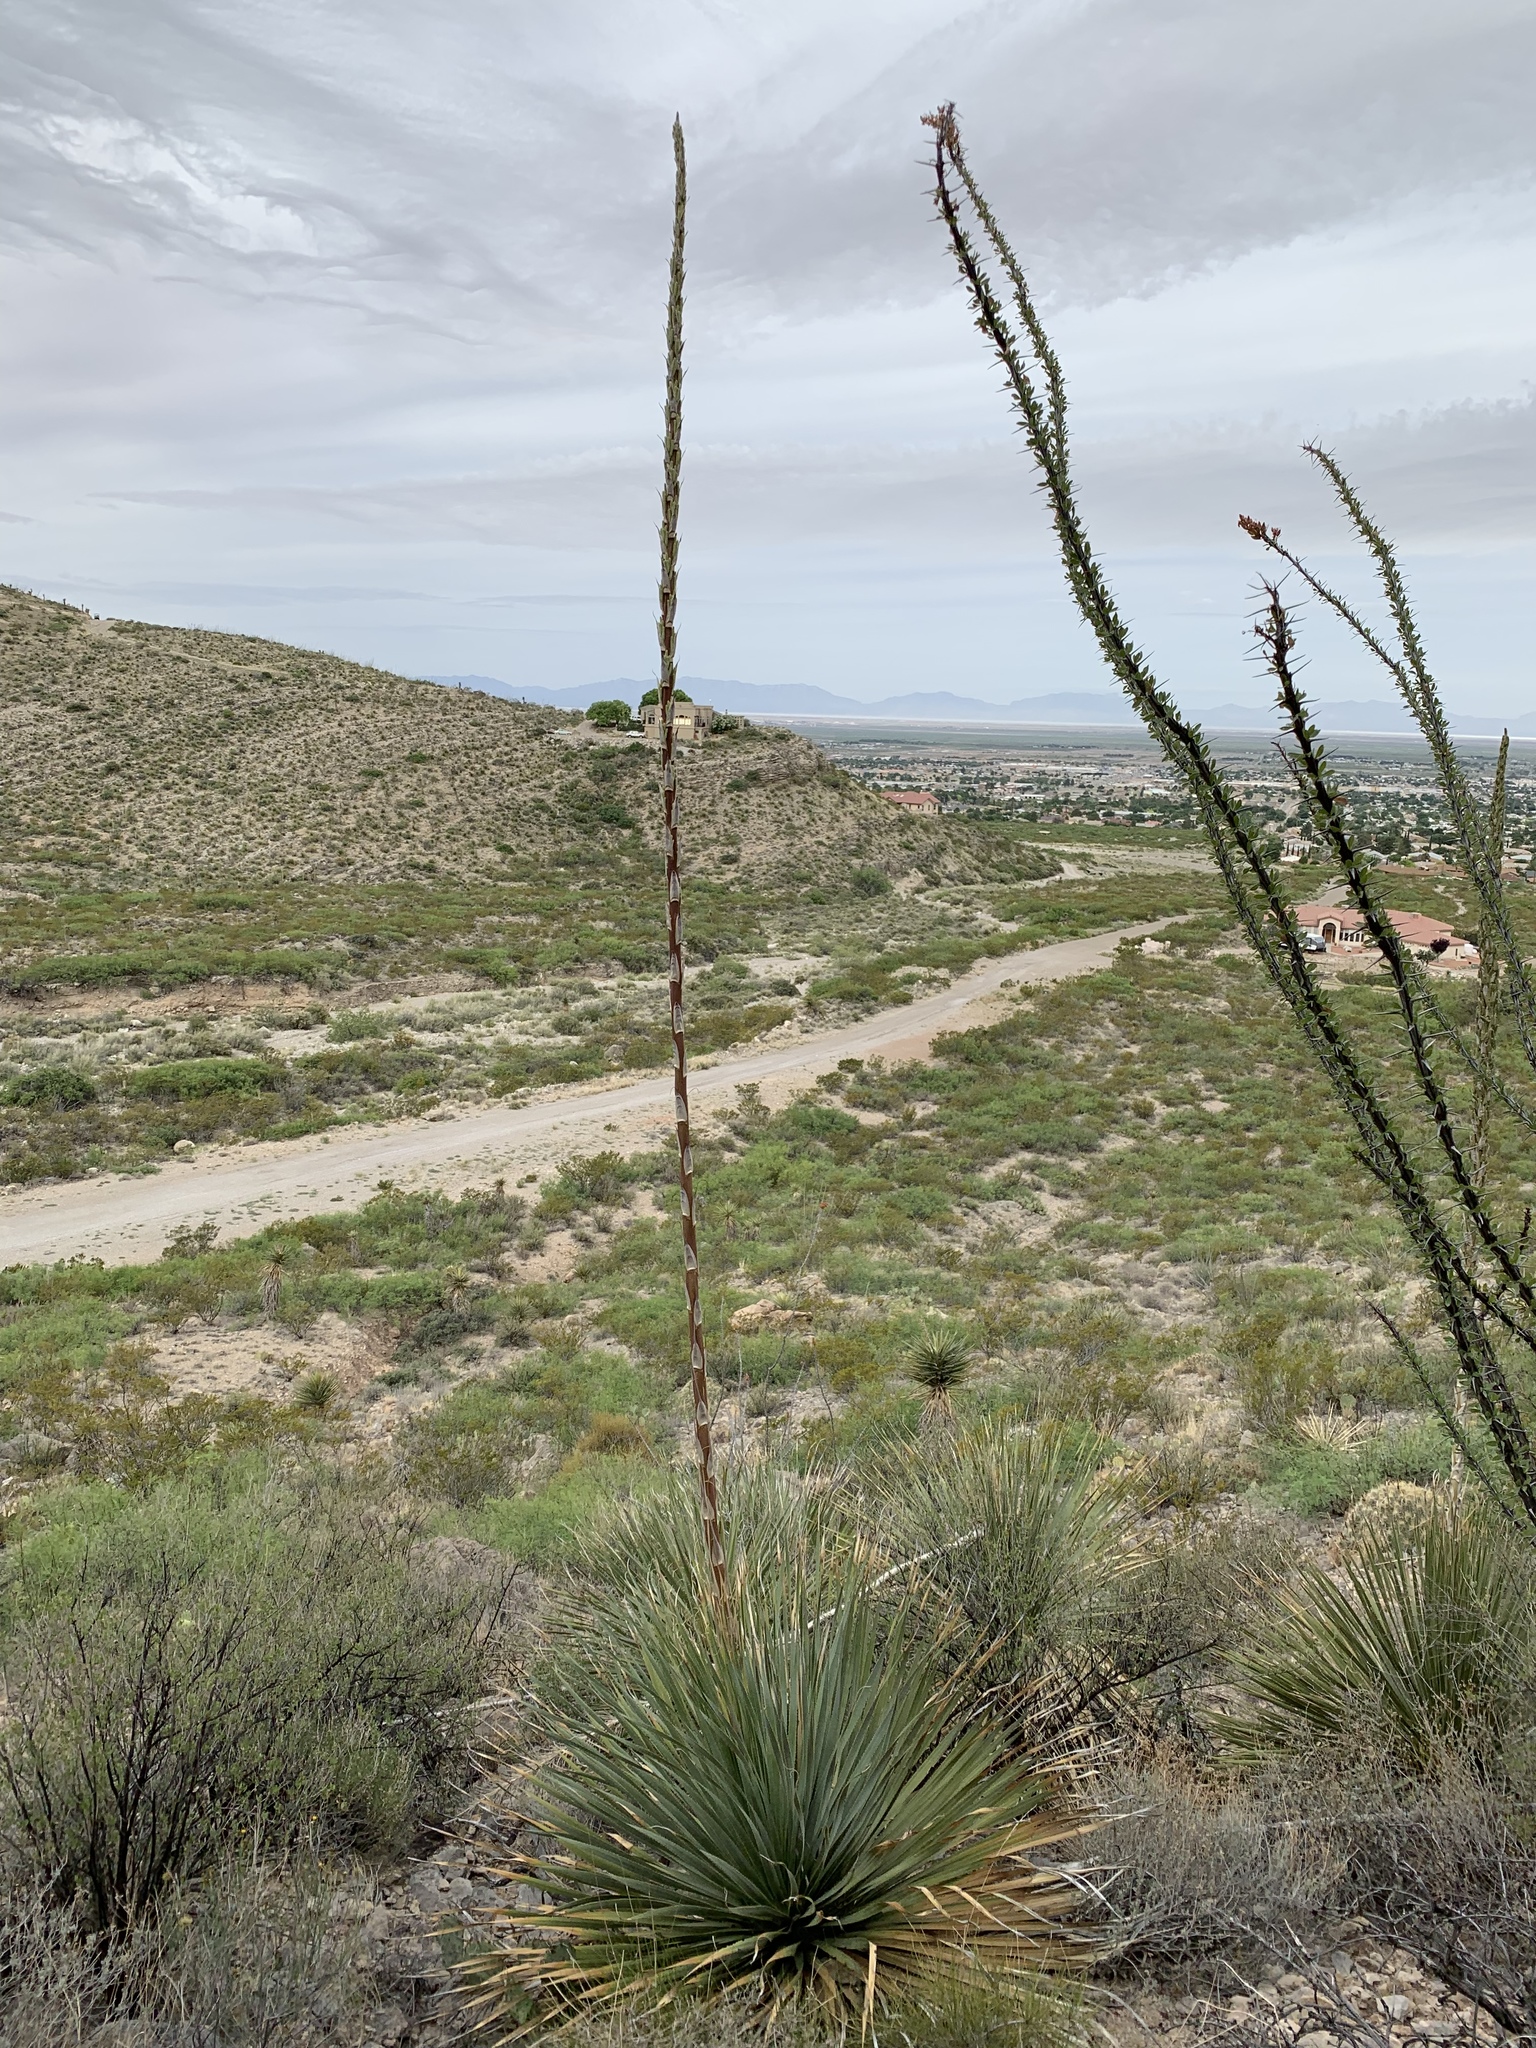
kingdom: Plantae
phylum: Tracheophyta
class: Liliopsida
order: Asparagales
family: Asparagaceae
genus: Dasylirion
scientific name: Dasylirion wheeleri
